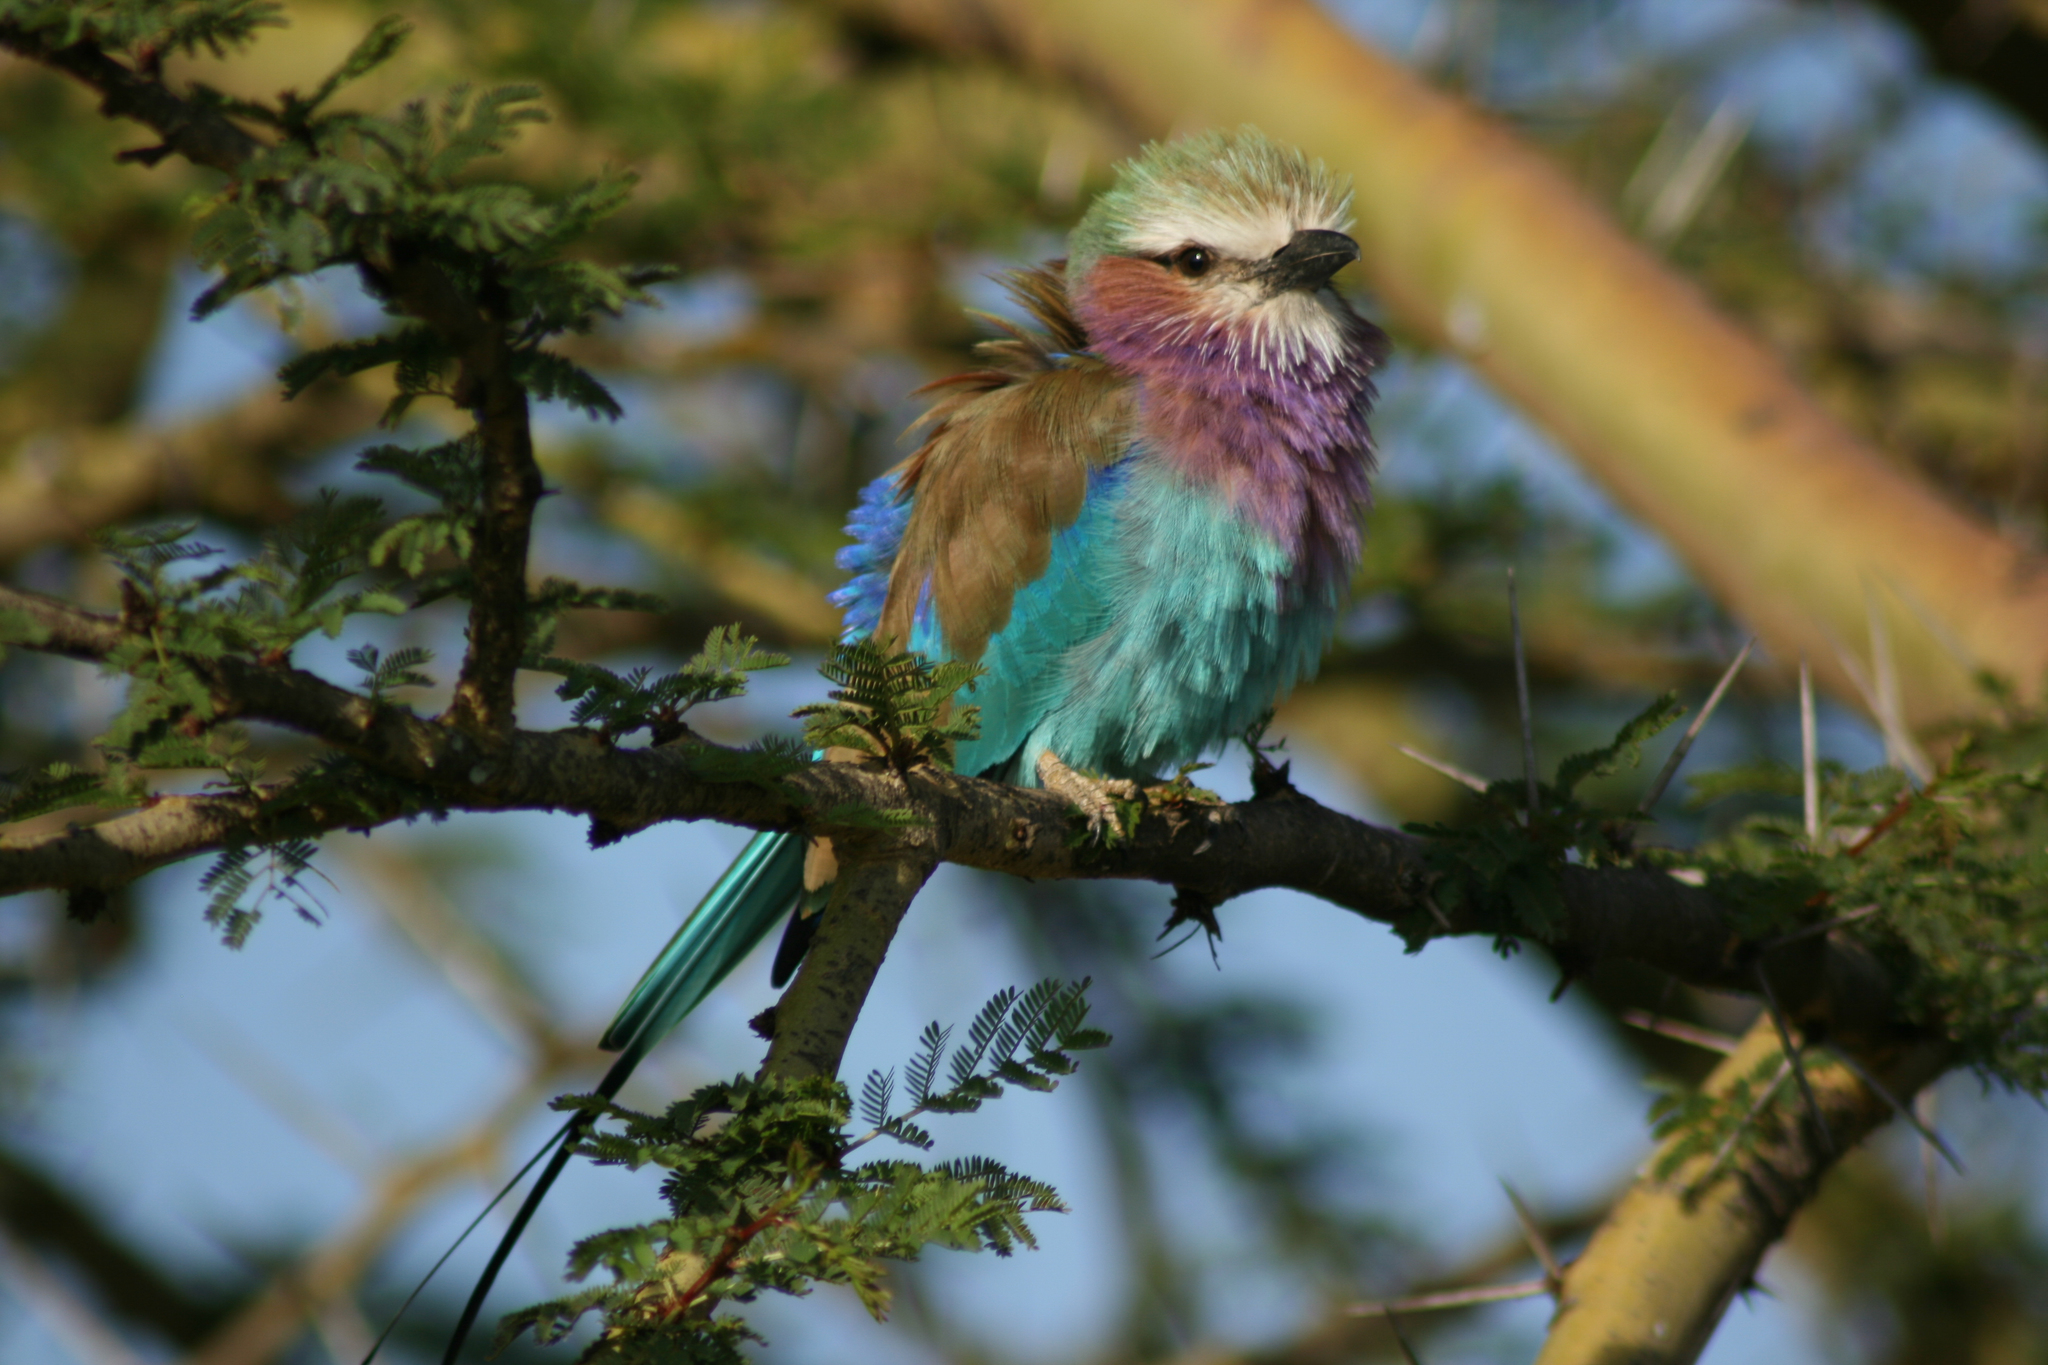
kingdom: Animalia
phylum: Chordata
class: Aves
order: Coraciiformes
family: Coraciidae
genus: Coracias
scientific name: Coracias caudatus
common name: Lilac-breasted roller
